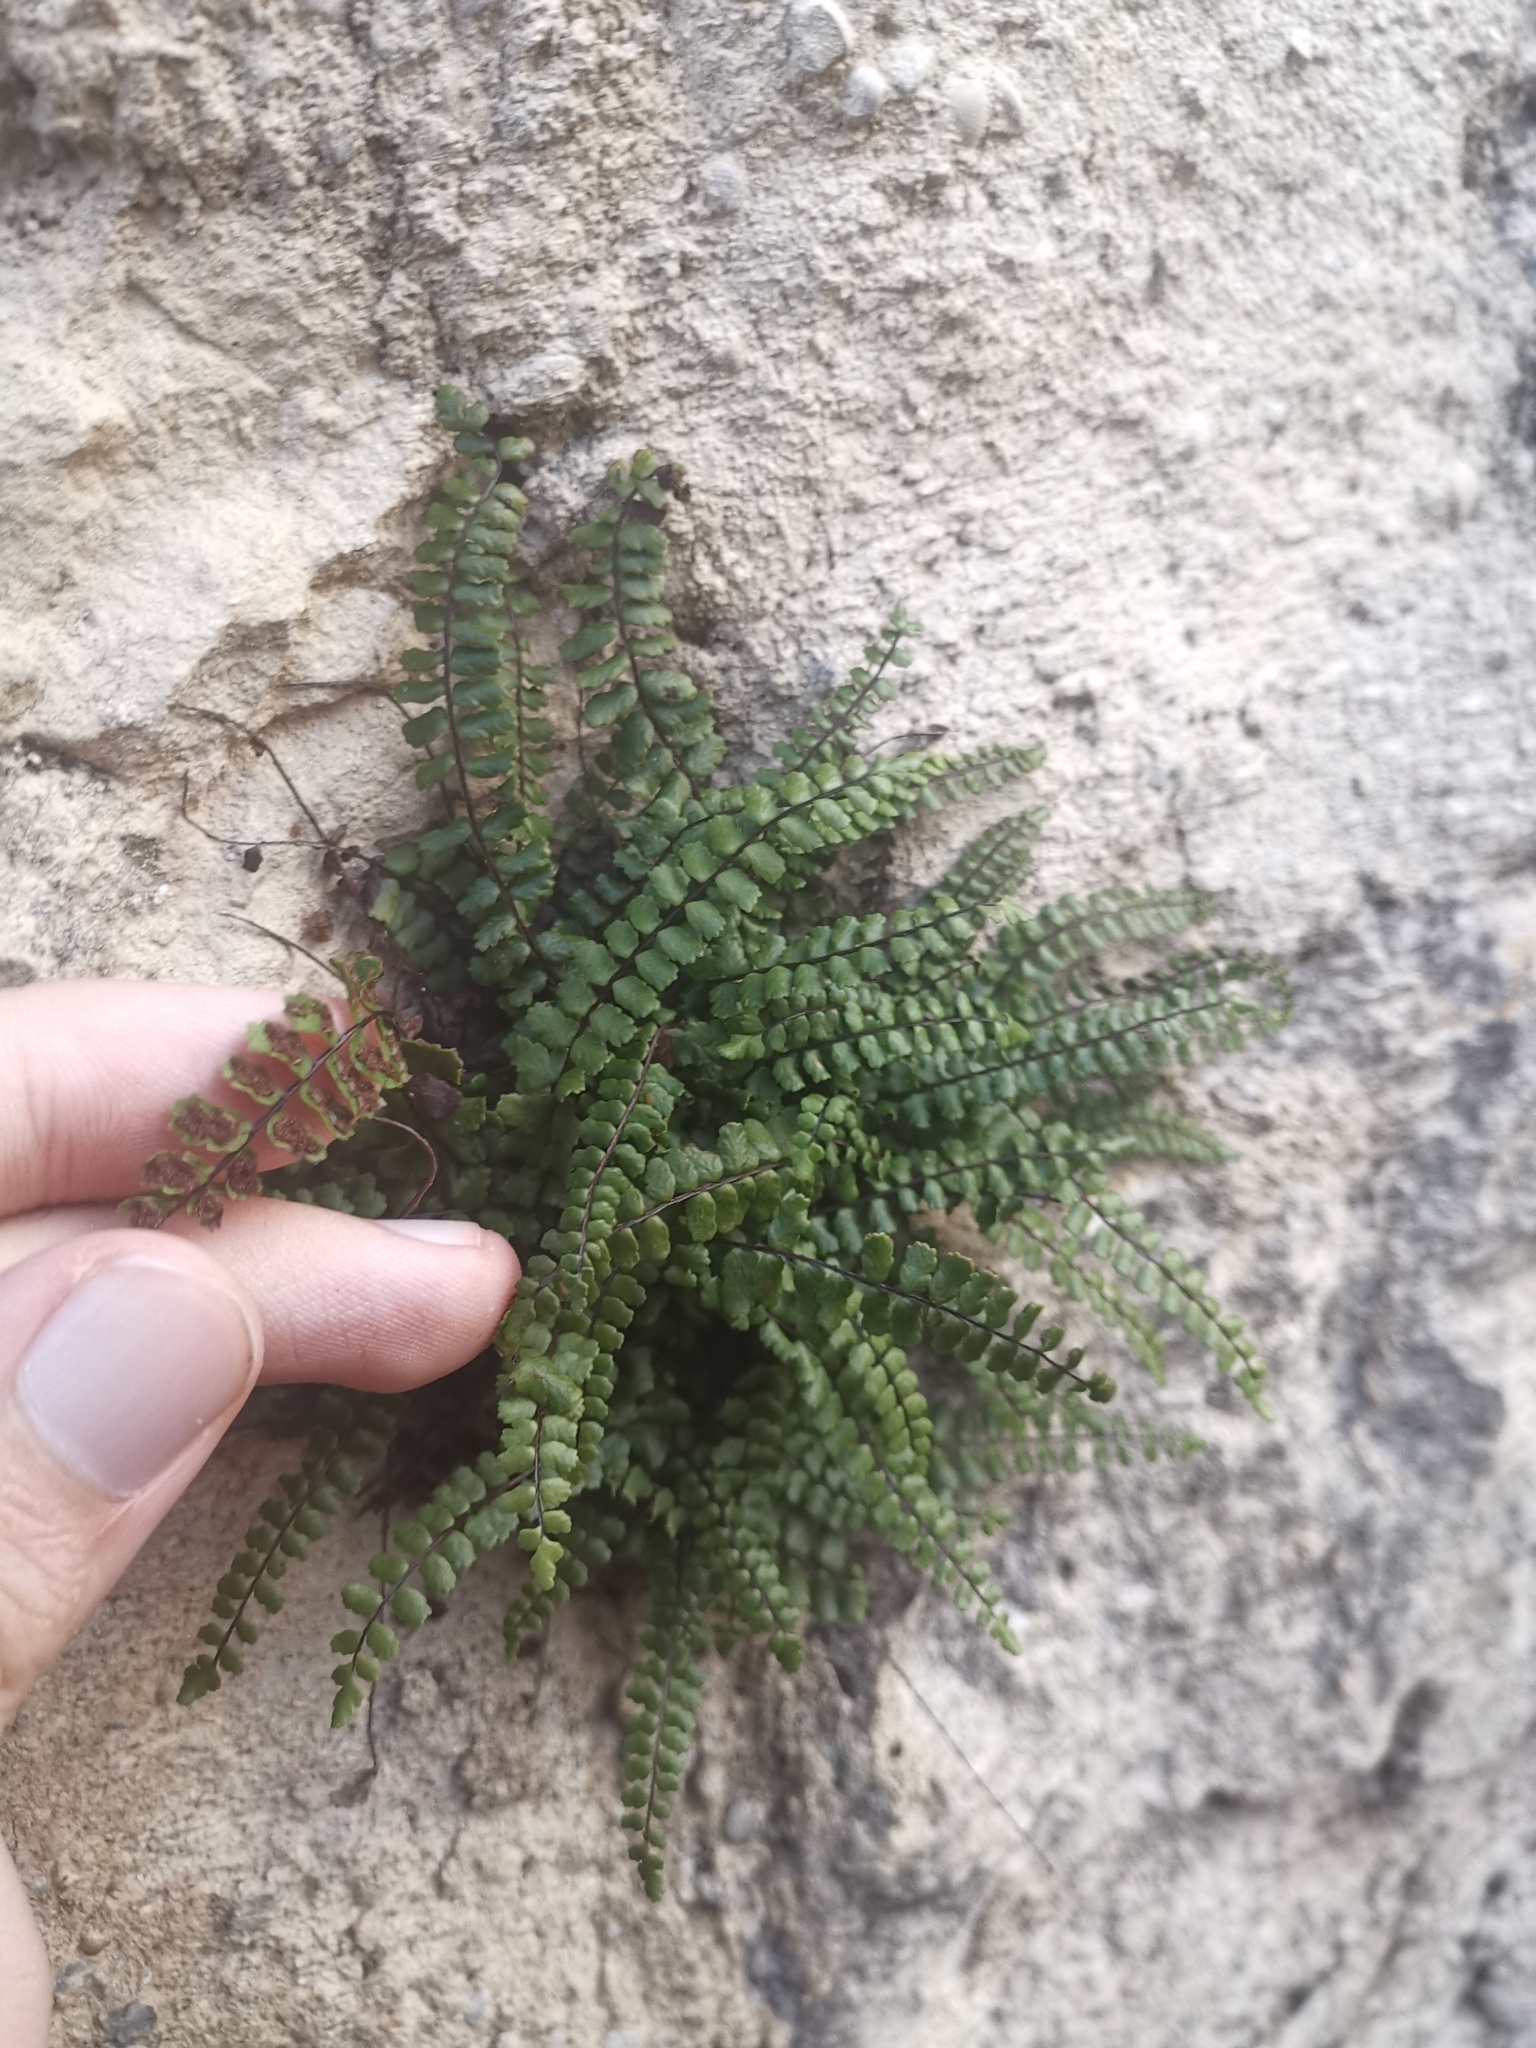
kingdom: Plantae
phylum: Tracheophyta
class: Polypodiopsida
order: Polypodiales
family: Aspleniaceae
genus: Asplenium
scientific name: Asplenium trichomanes
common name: Maidenhair spleenwort
